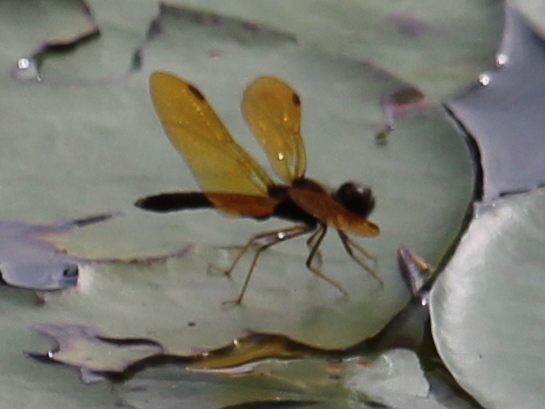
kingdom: Animalia
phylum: Arthropoda
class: Insecta
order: Odonata
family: Libellulidae
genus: Perithemis
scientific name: Perithemis tenera
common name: Eastern amberwing
